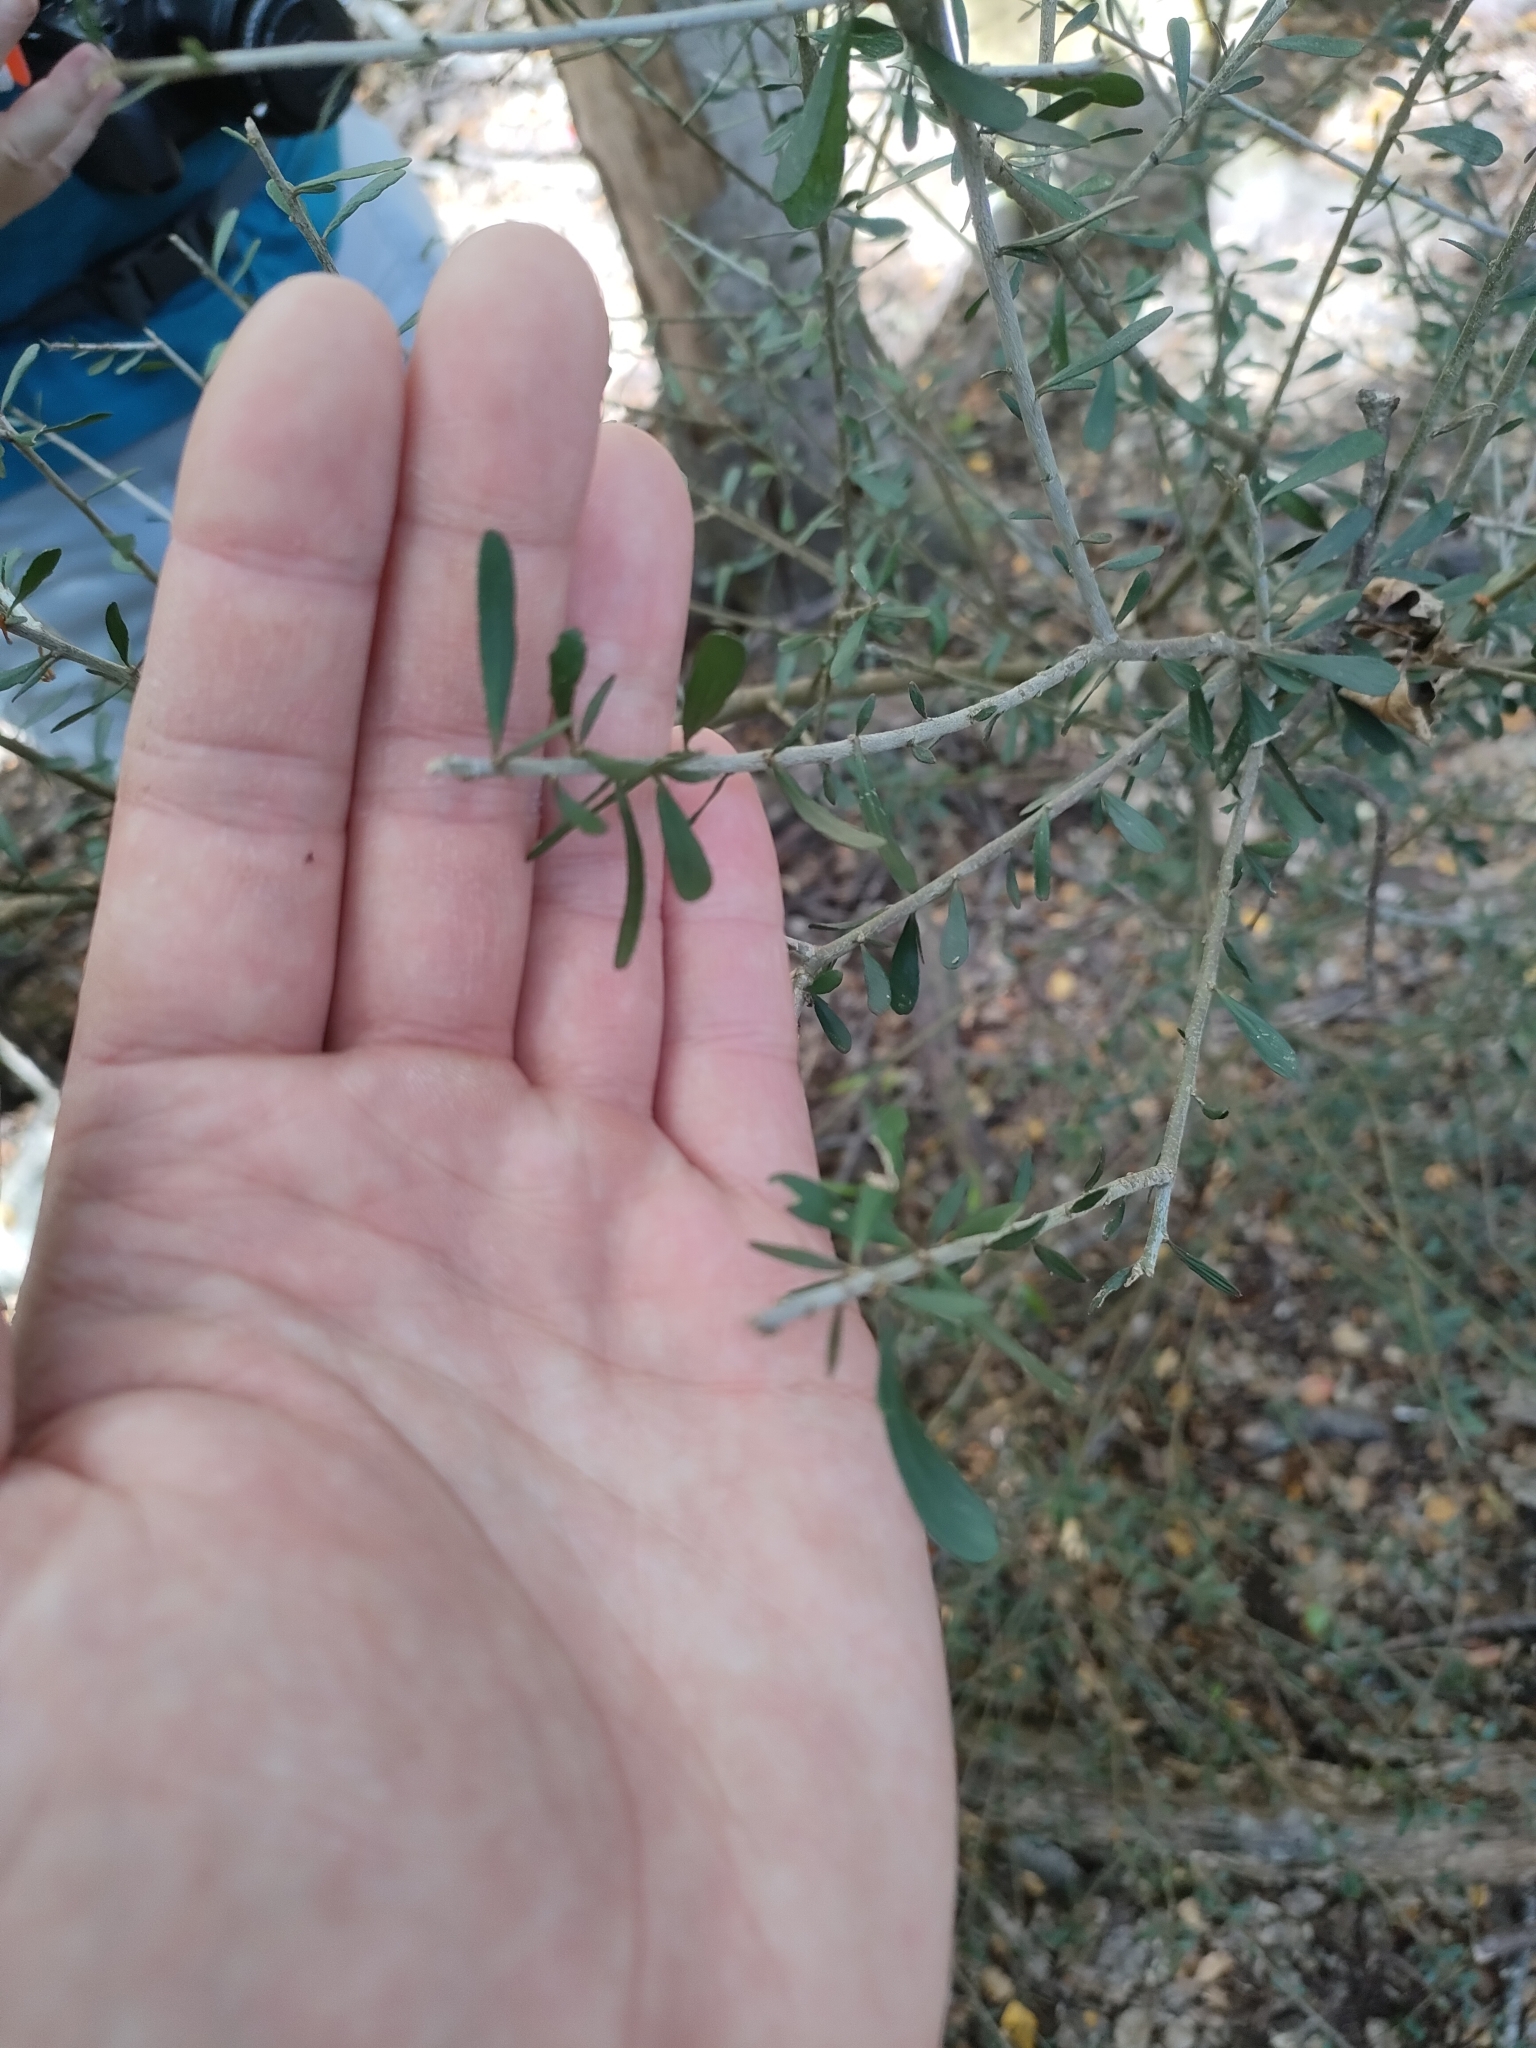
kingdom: Plantae
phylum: Tracheophyta
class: Magnoliopsida
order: Malpighiales
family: Violaceae
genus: Melicytus
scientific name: Melicytus alpinus
